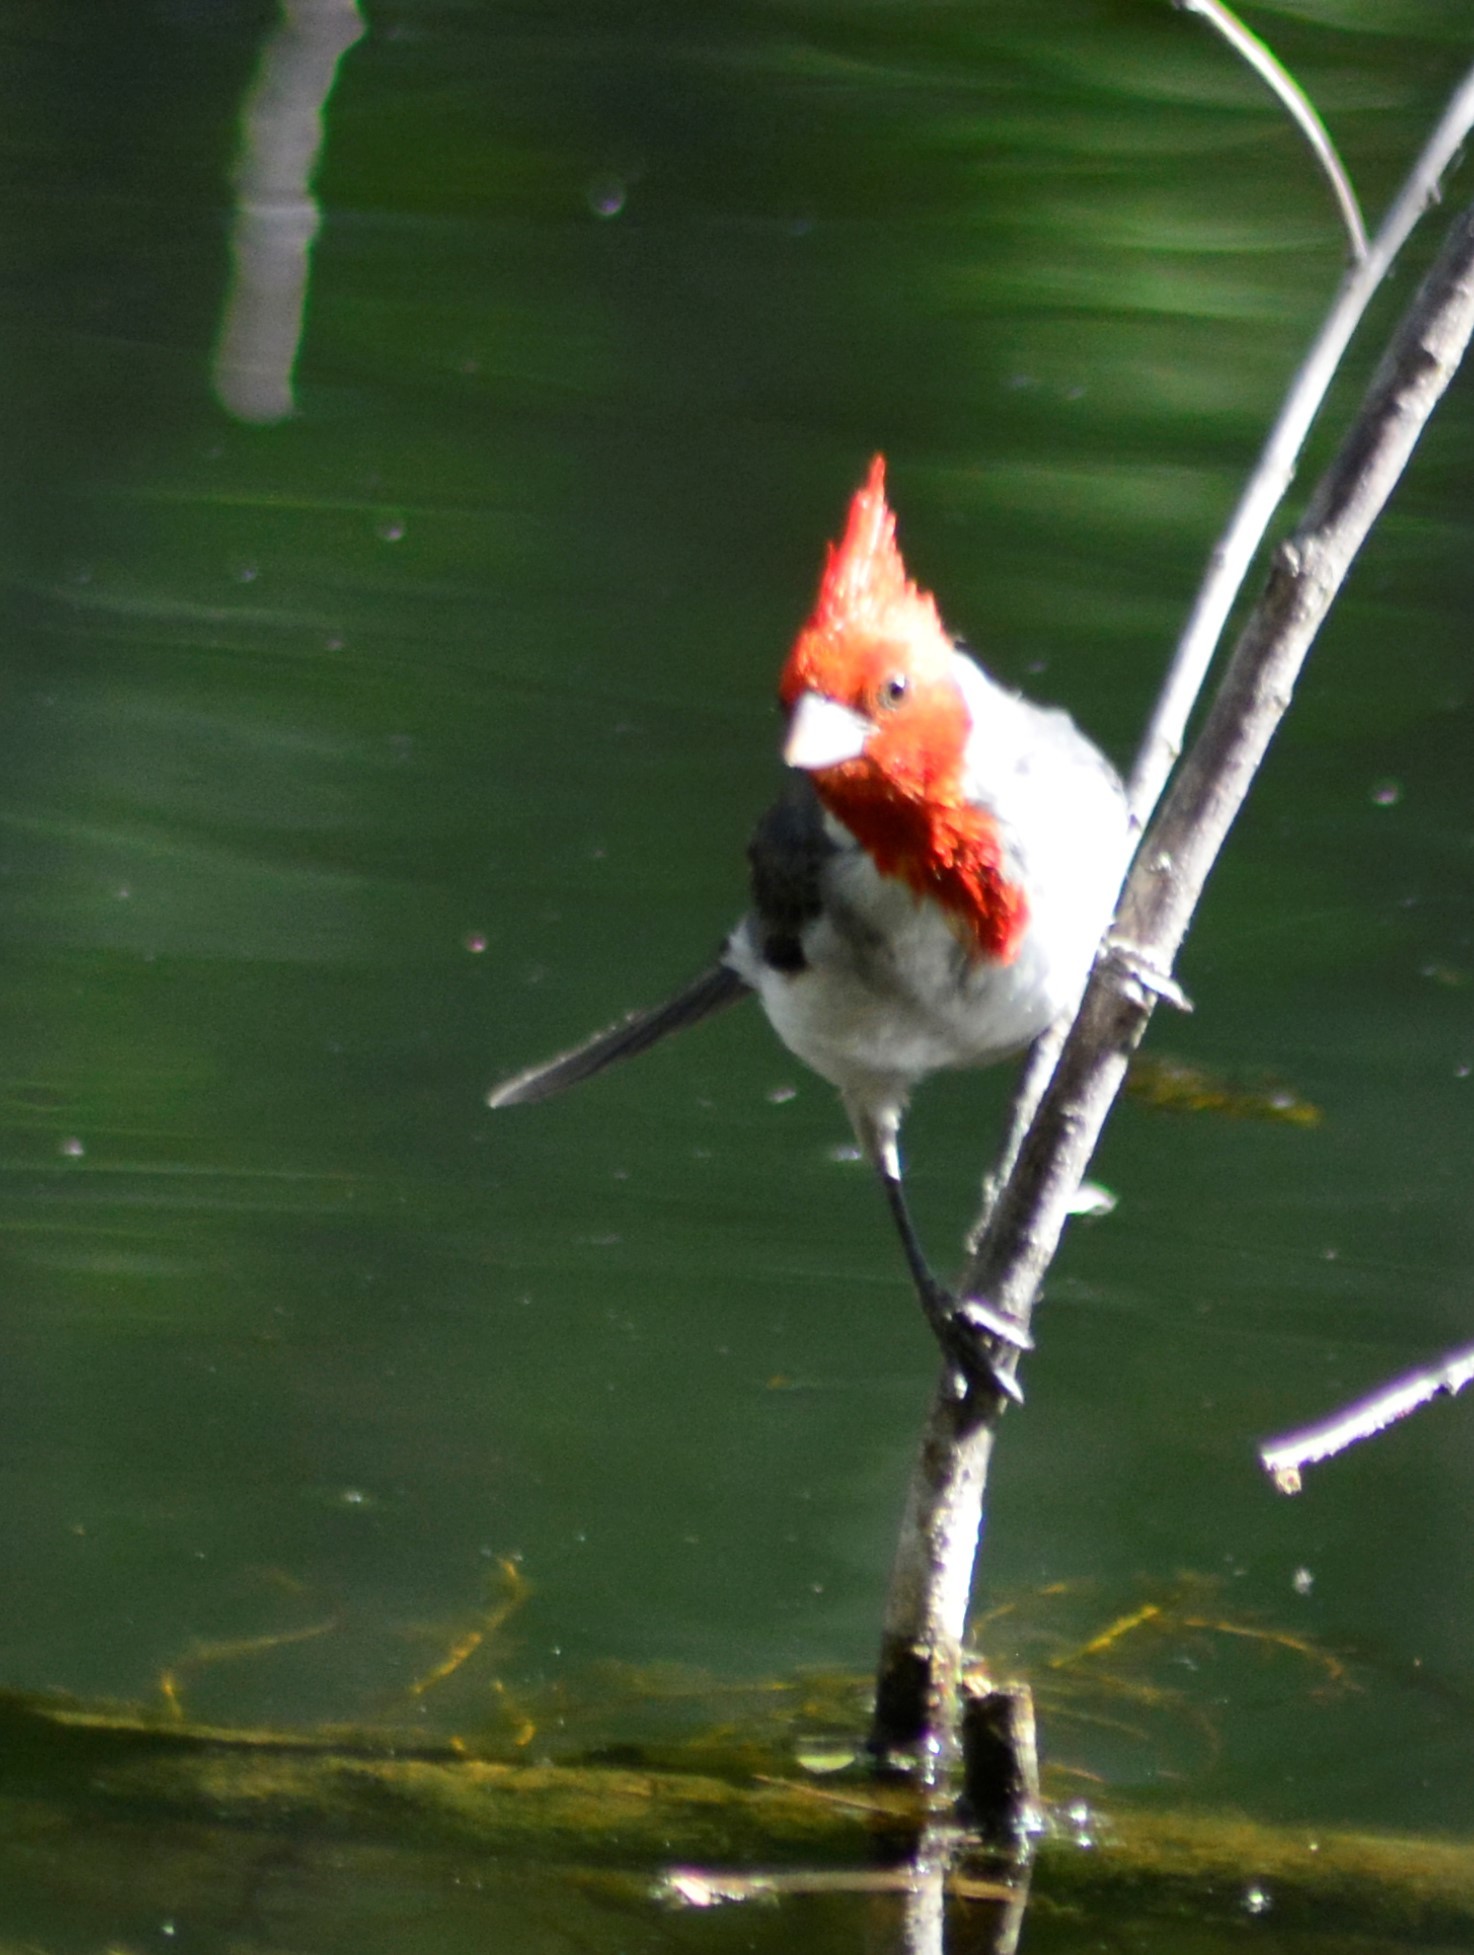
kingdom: Animalia
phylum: Chordata
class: Aves
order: Passeriformes
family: Thraupidae
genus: Paroaria
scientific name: Paroaria coronata
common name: Red-crested cardinal
